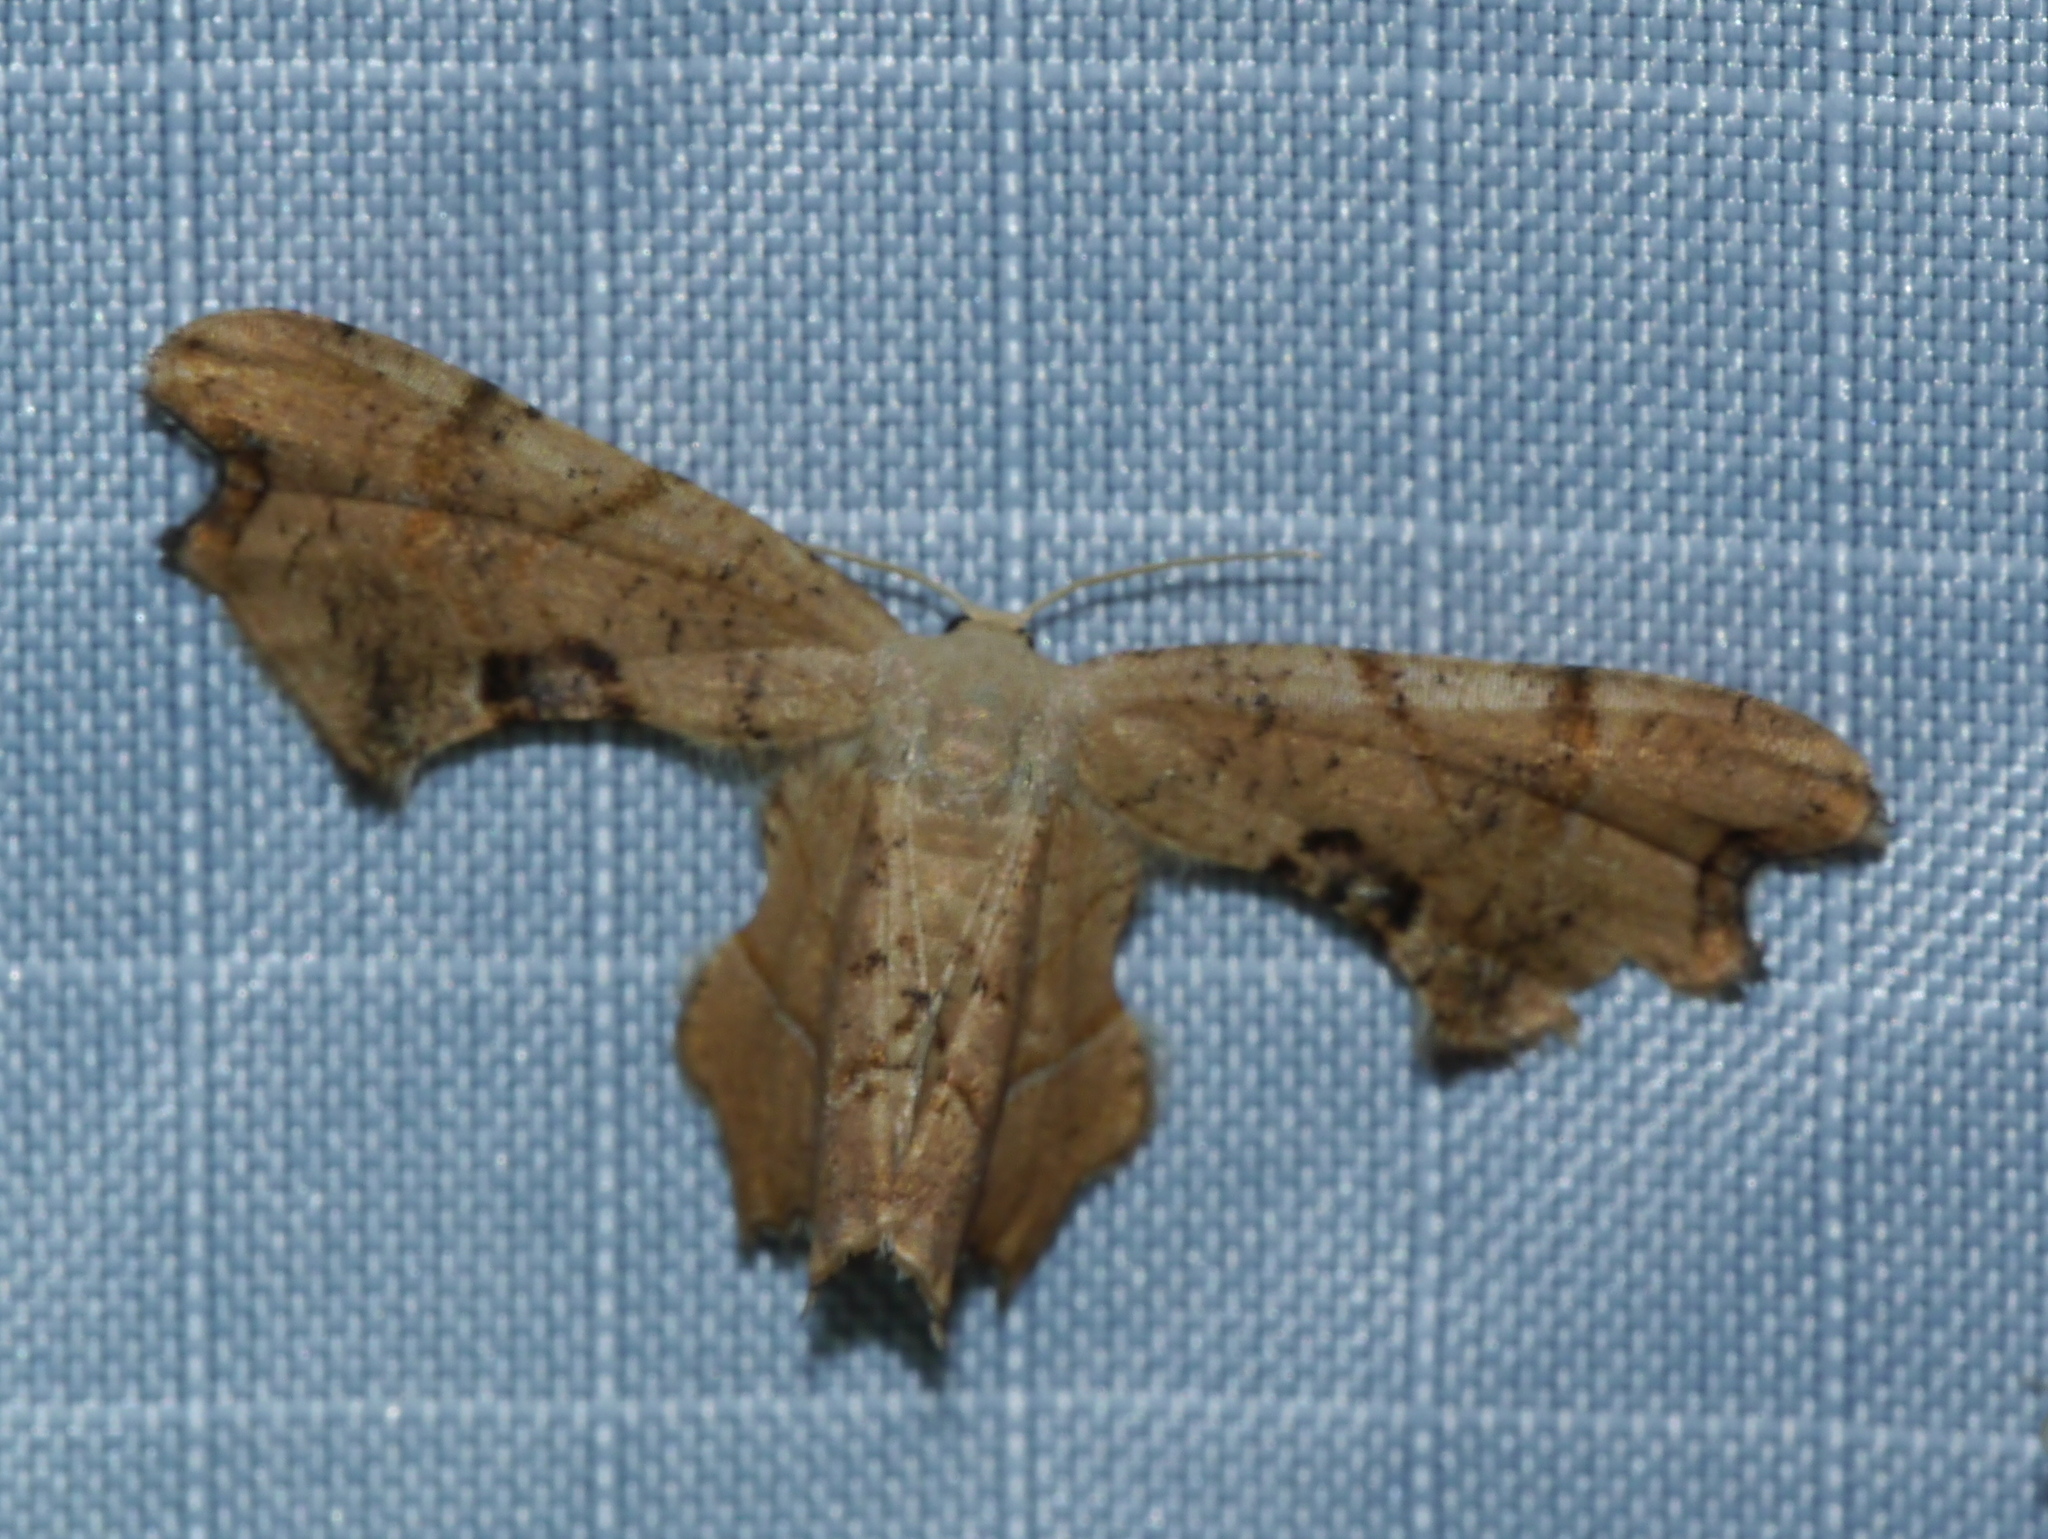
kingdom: Animalia
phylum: Arthropoda
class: Insecta
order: Lepidoptera
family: Uraniidae
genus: Epiplema
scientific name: Epiplema Calledapteryx dryopterata
